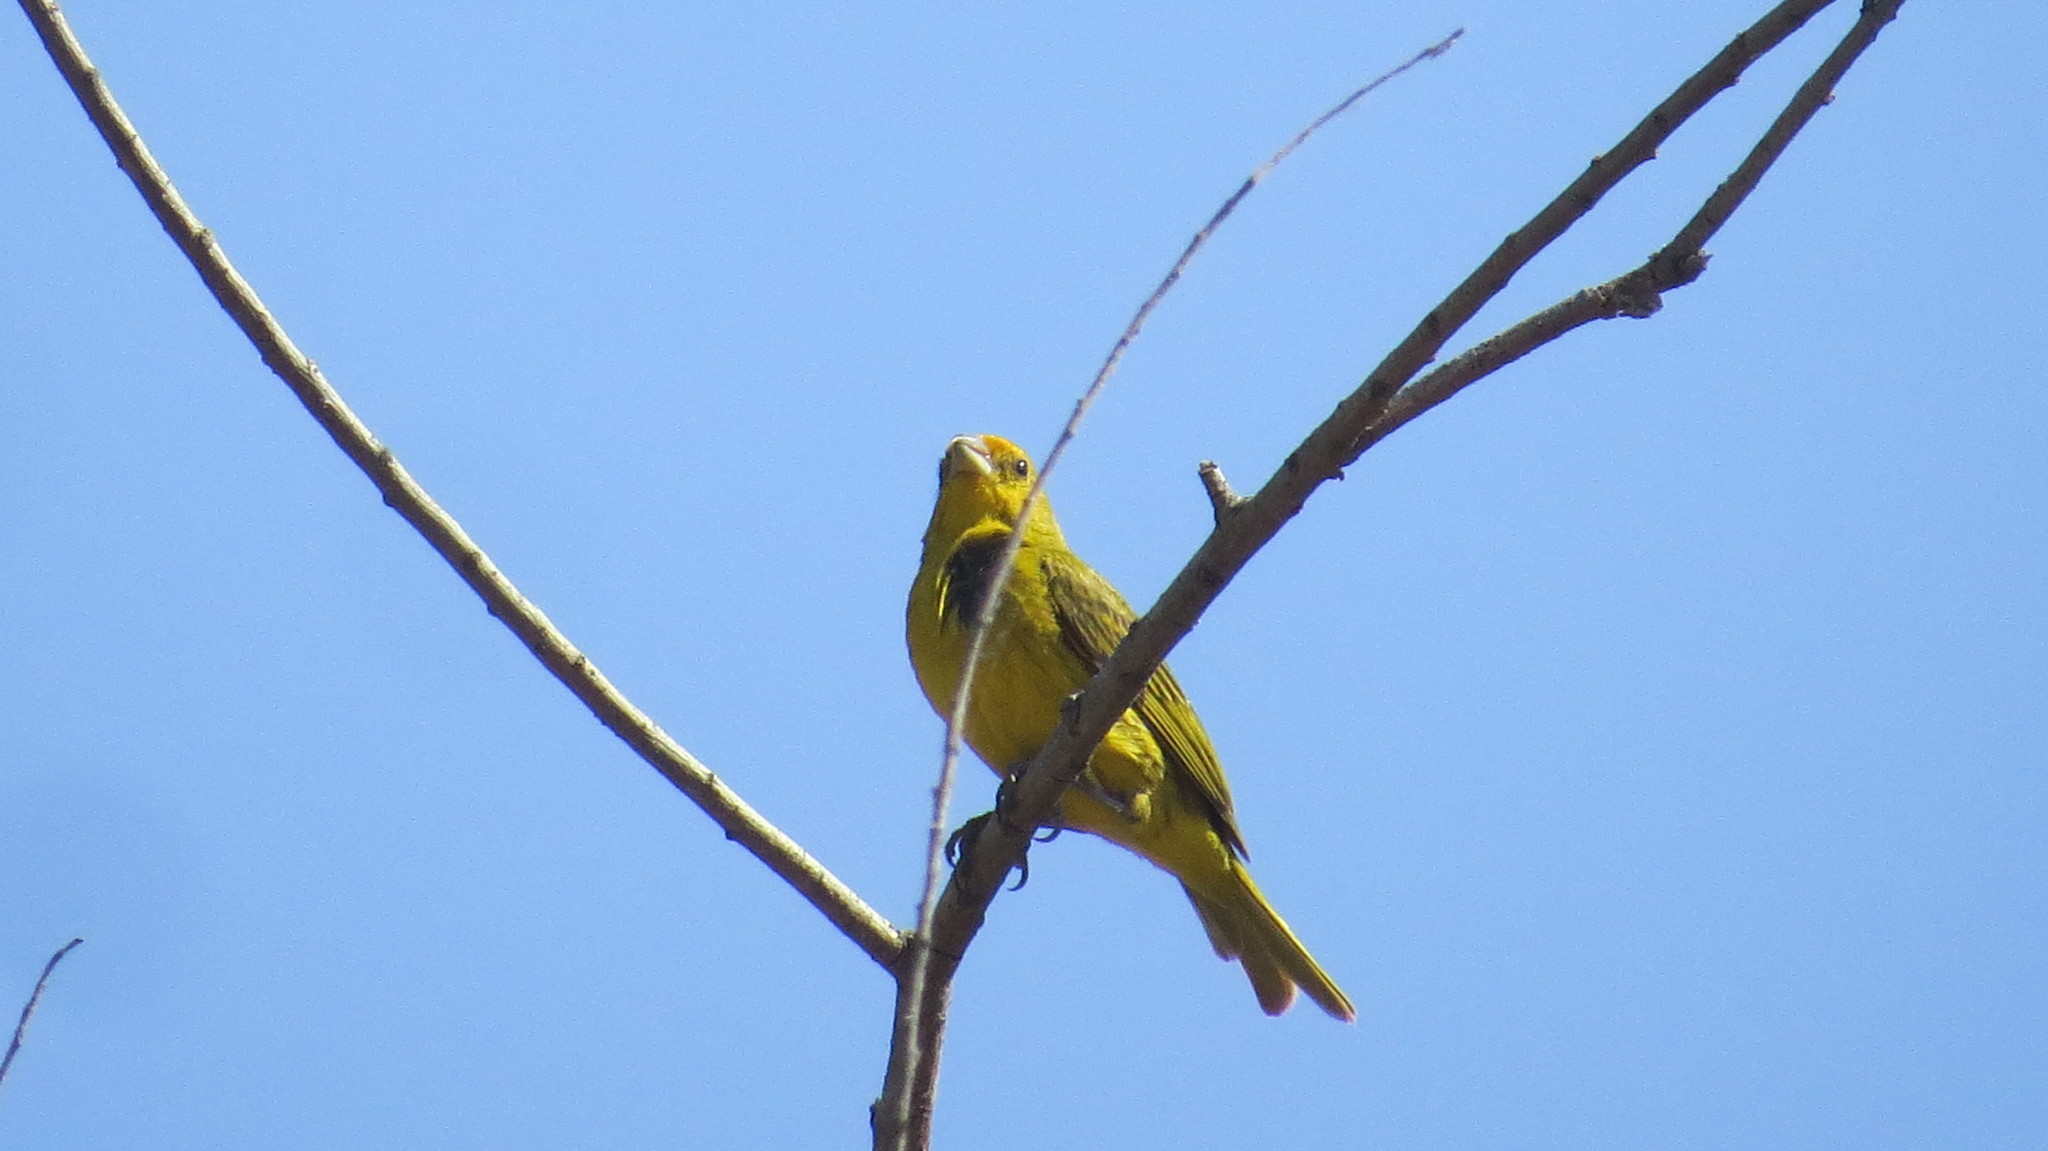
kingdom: Animalia
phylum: Chordata
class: Aves
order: Passeriformes
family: Thraupidae
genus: Sicalis
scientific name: Sicalis flaveola
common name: Saffron finch
